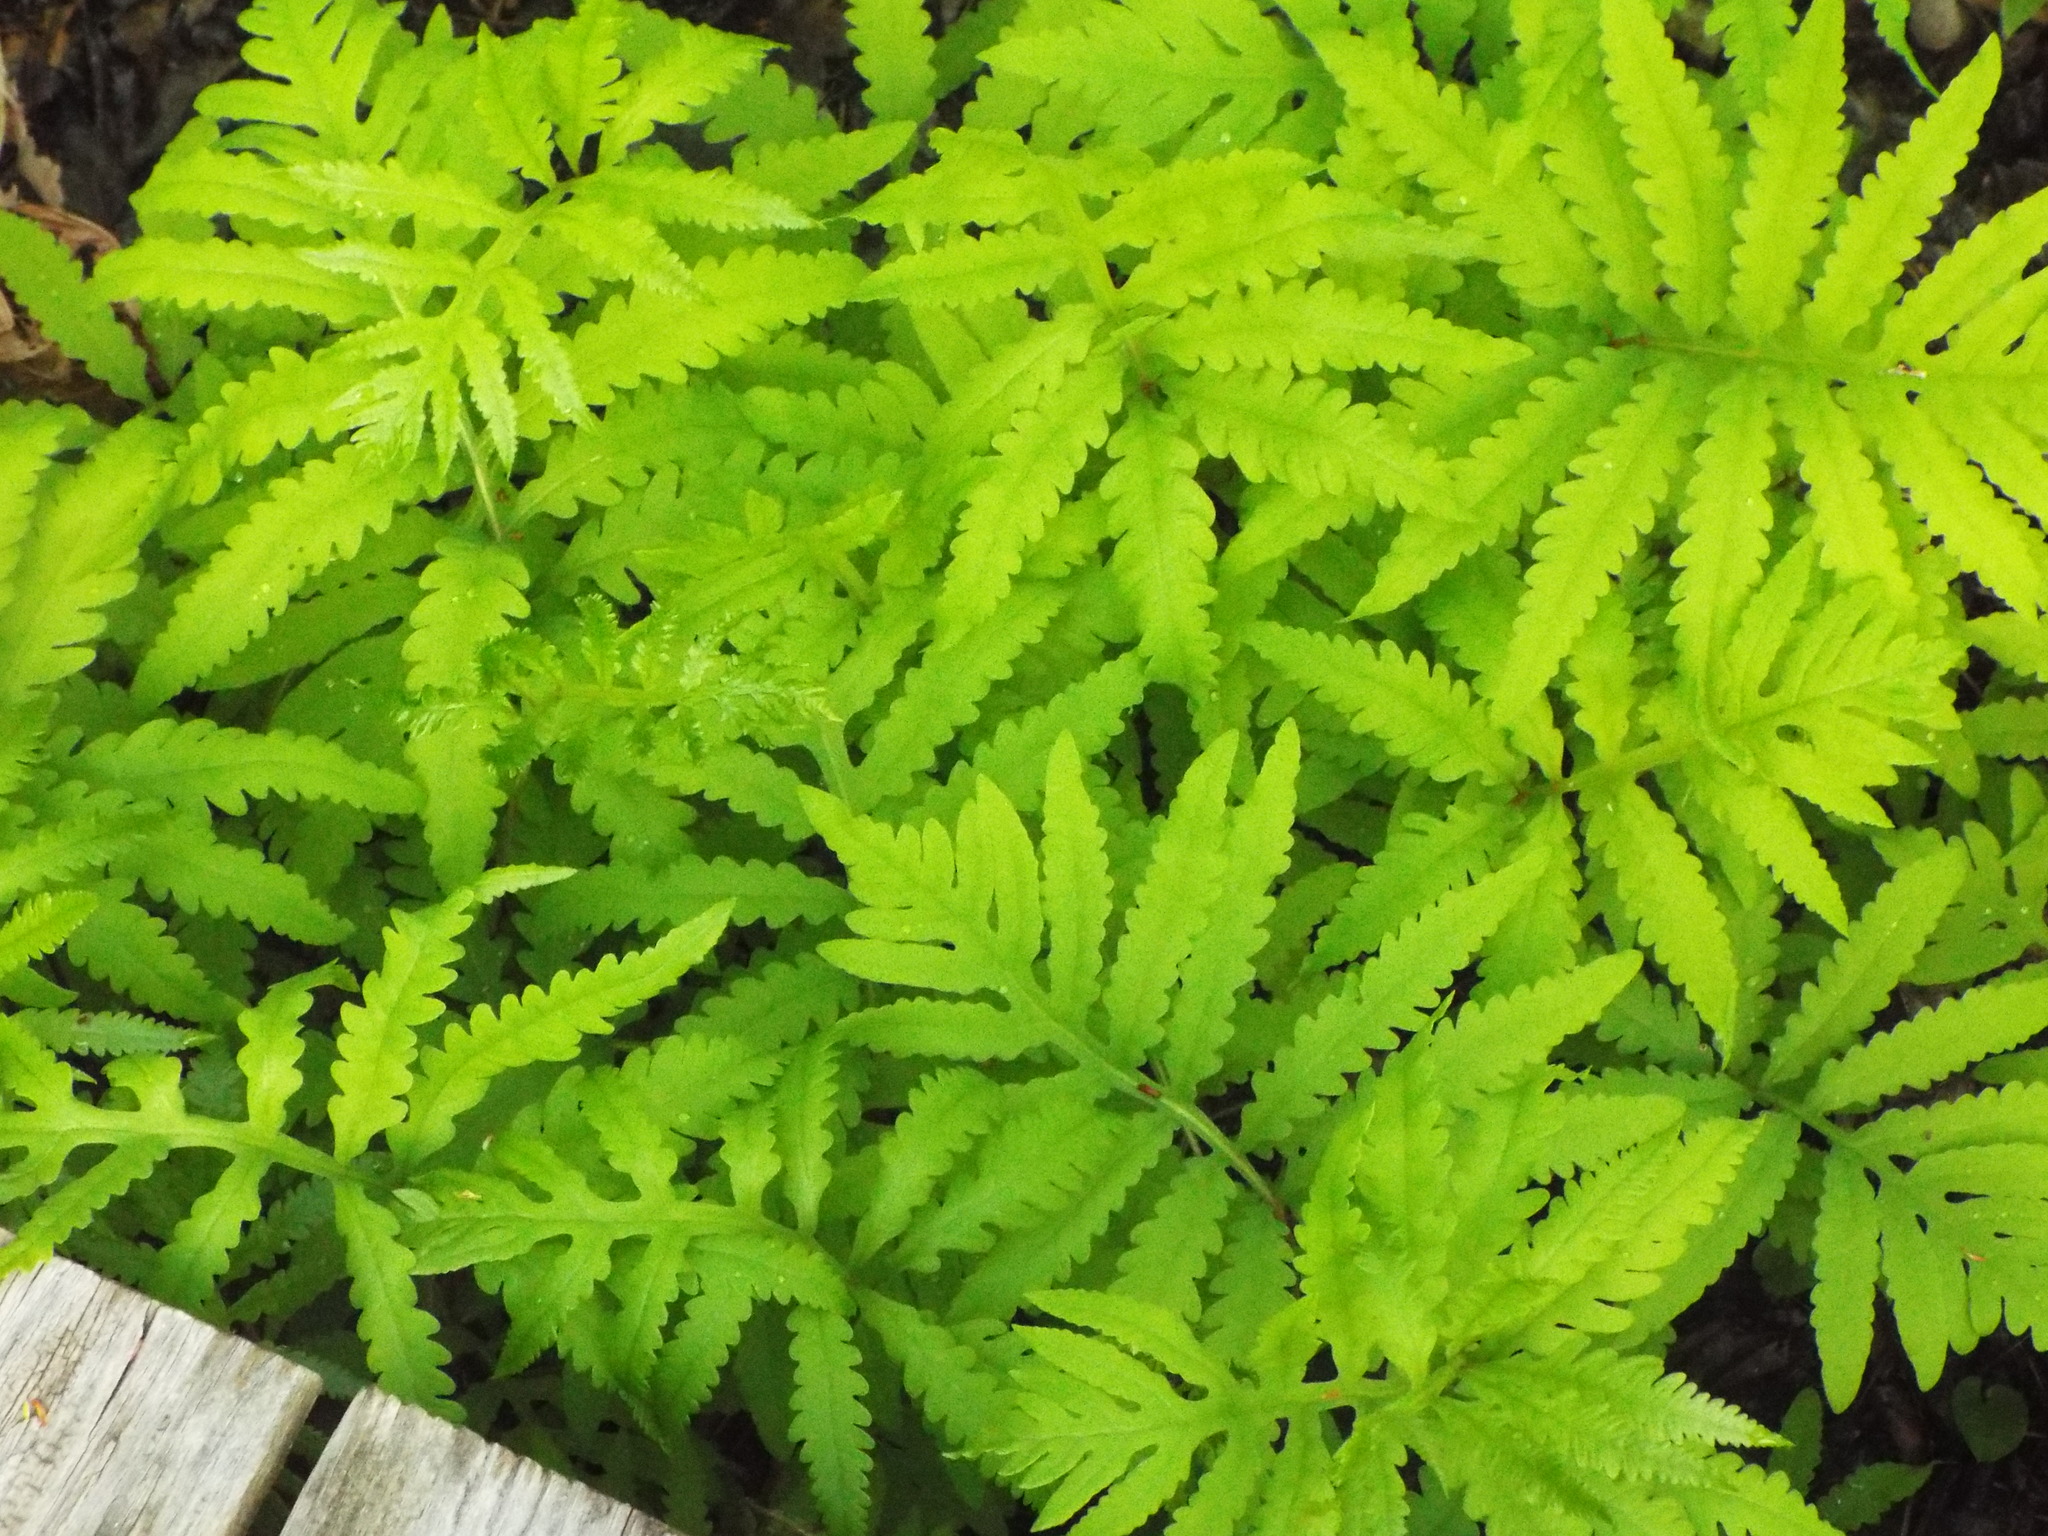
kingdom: Plantae
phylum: Tracheophyta
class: Polypodiopsida
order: Polypodiales
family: Onocleaceae
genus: Onoclea
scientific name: Onoclea sensibilis
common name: Sensitive fern
